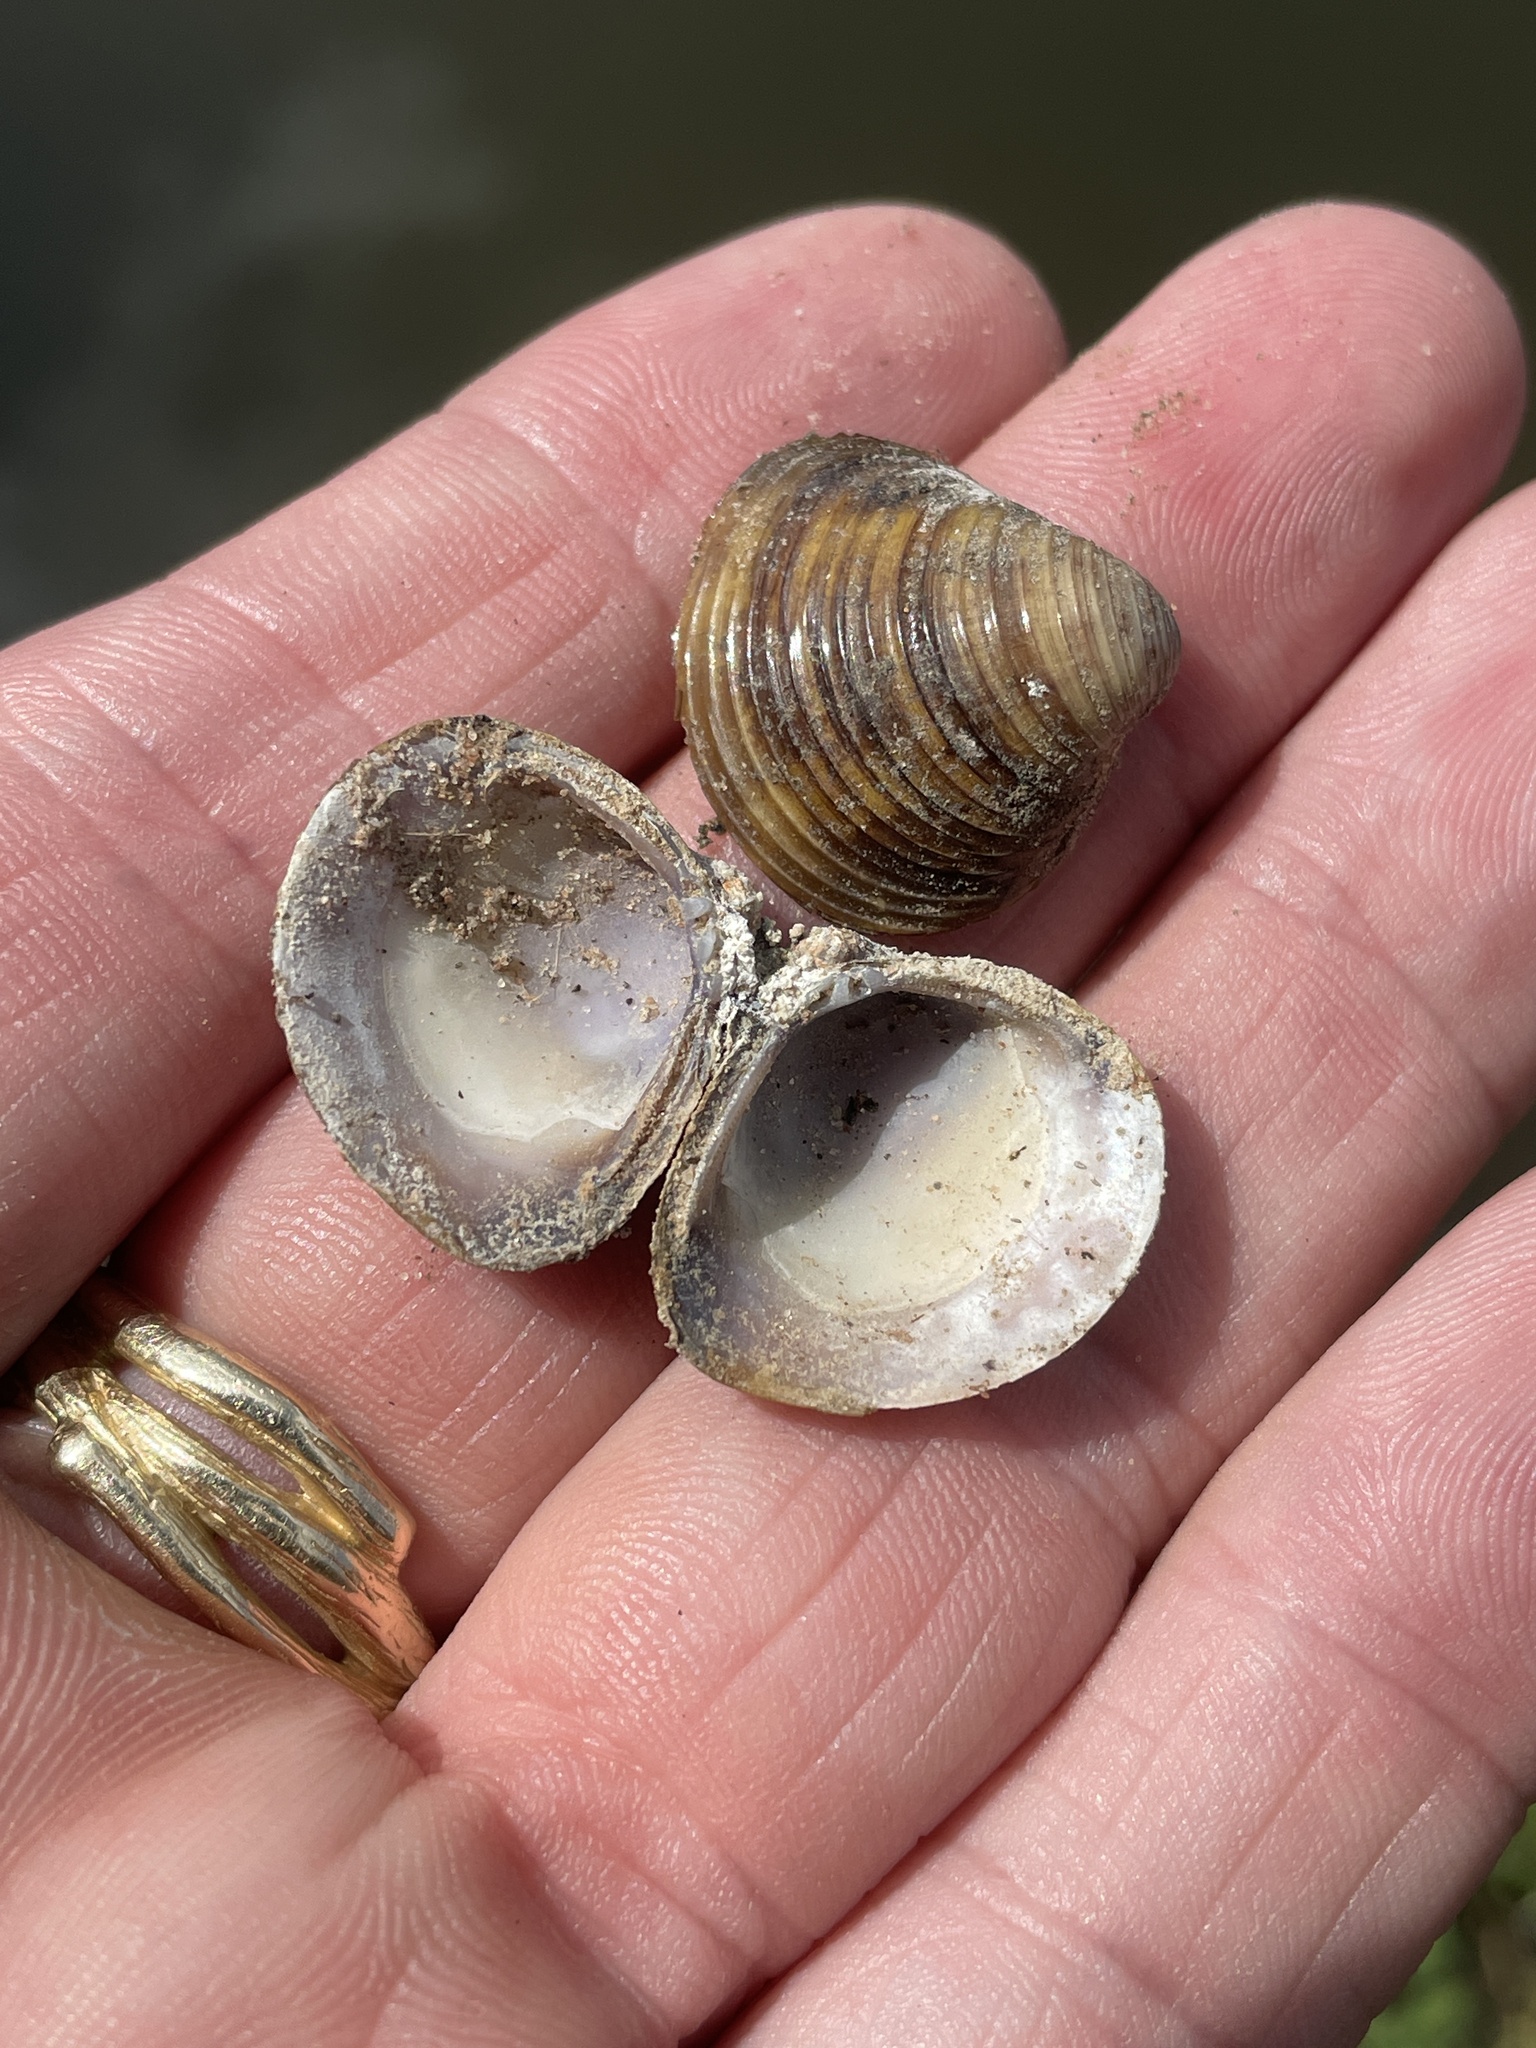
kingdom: Animalia
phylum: Mollusca
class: Bivalvia
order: Venerida
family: Cyrenidae
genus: Corbicula
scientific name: Corbicula fluminea
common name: Asian clam
